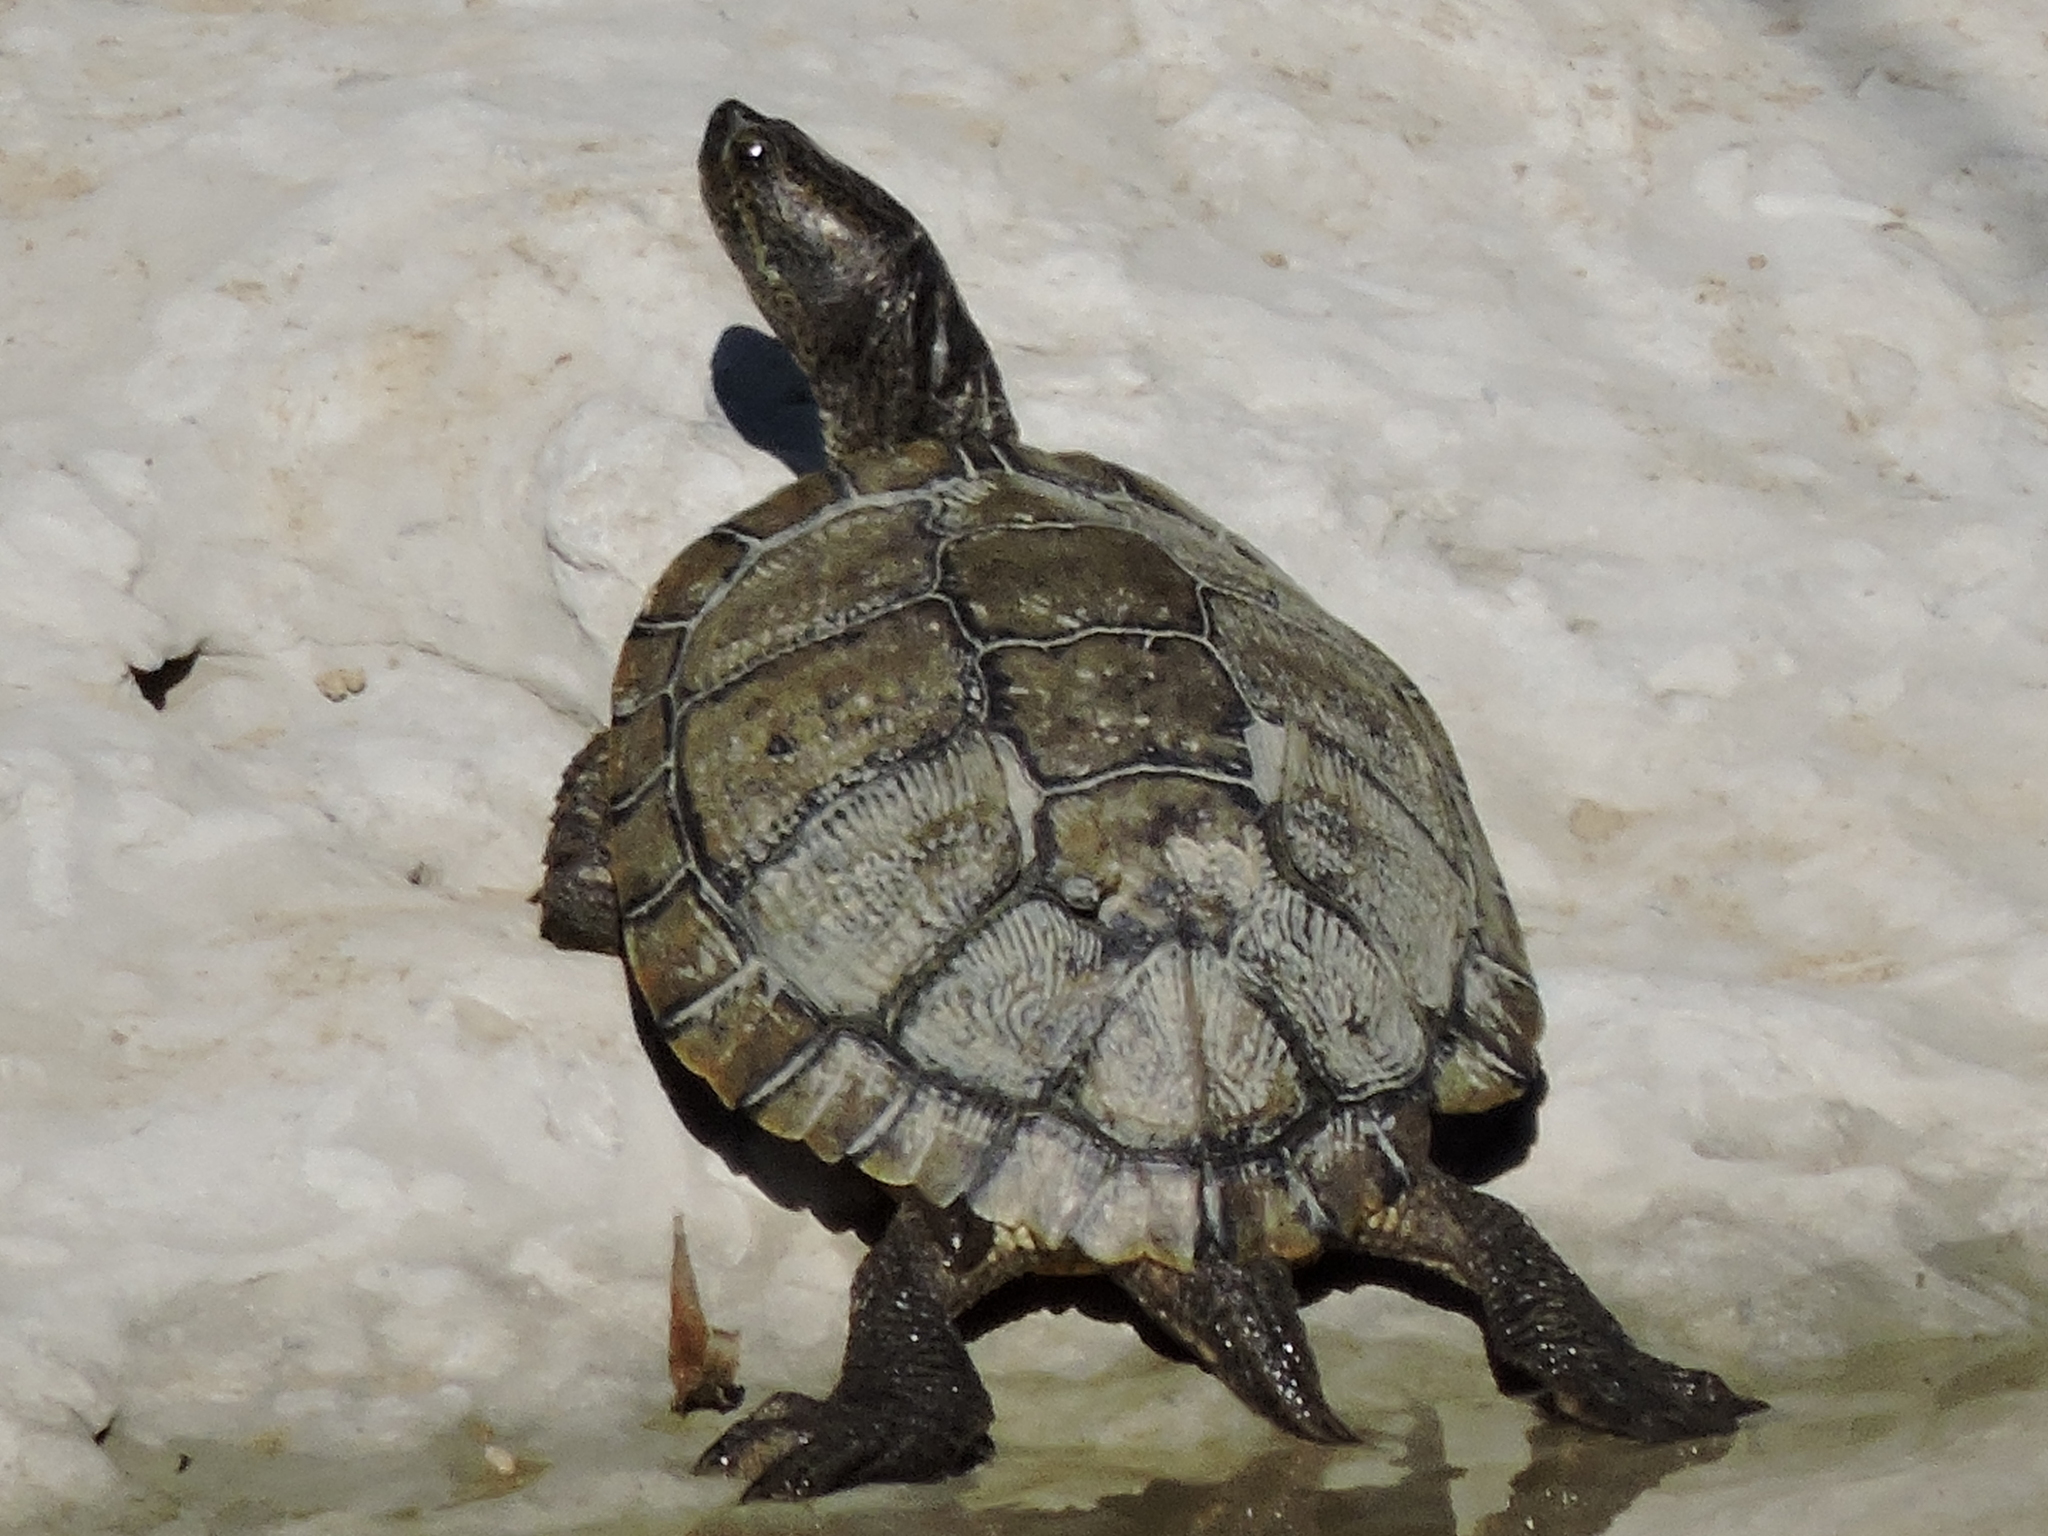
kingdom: Animalia
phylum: Chordata
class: Testudines
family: Emydidae
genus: Trachemys
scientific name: Trachemys scripta
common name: Slider
